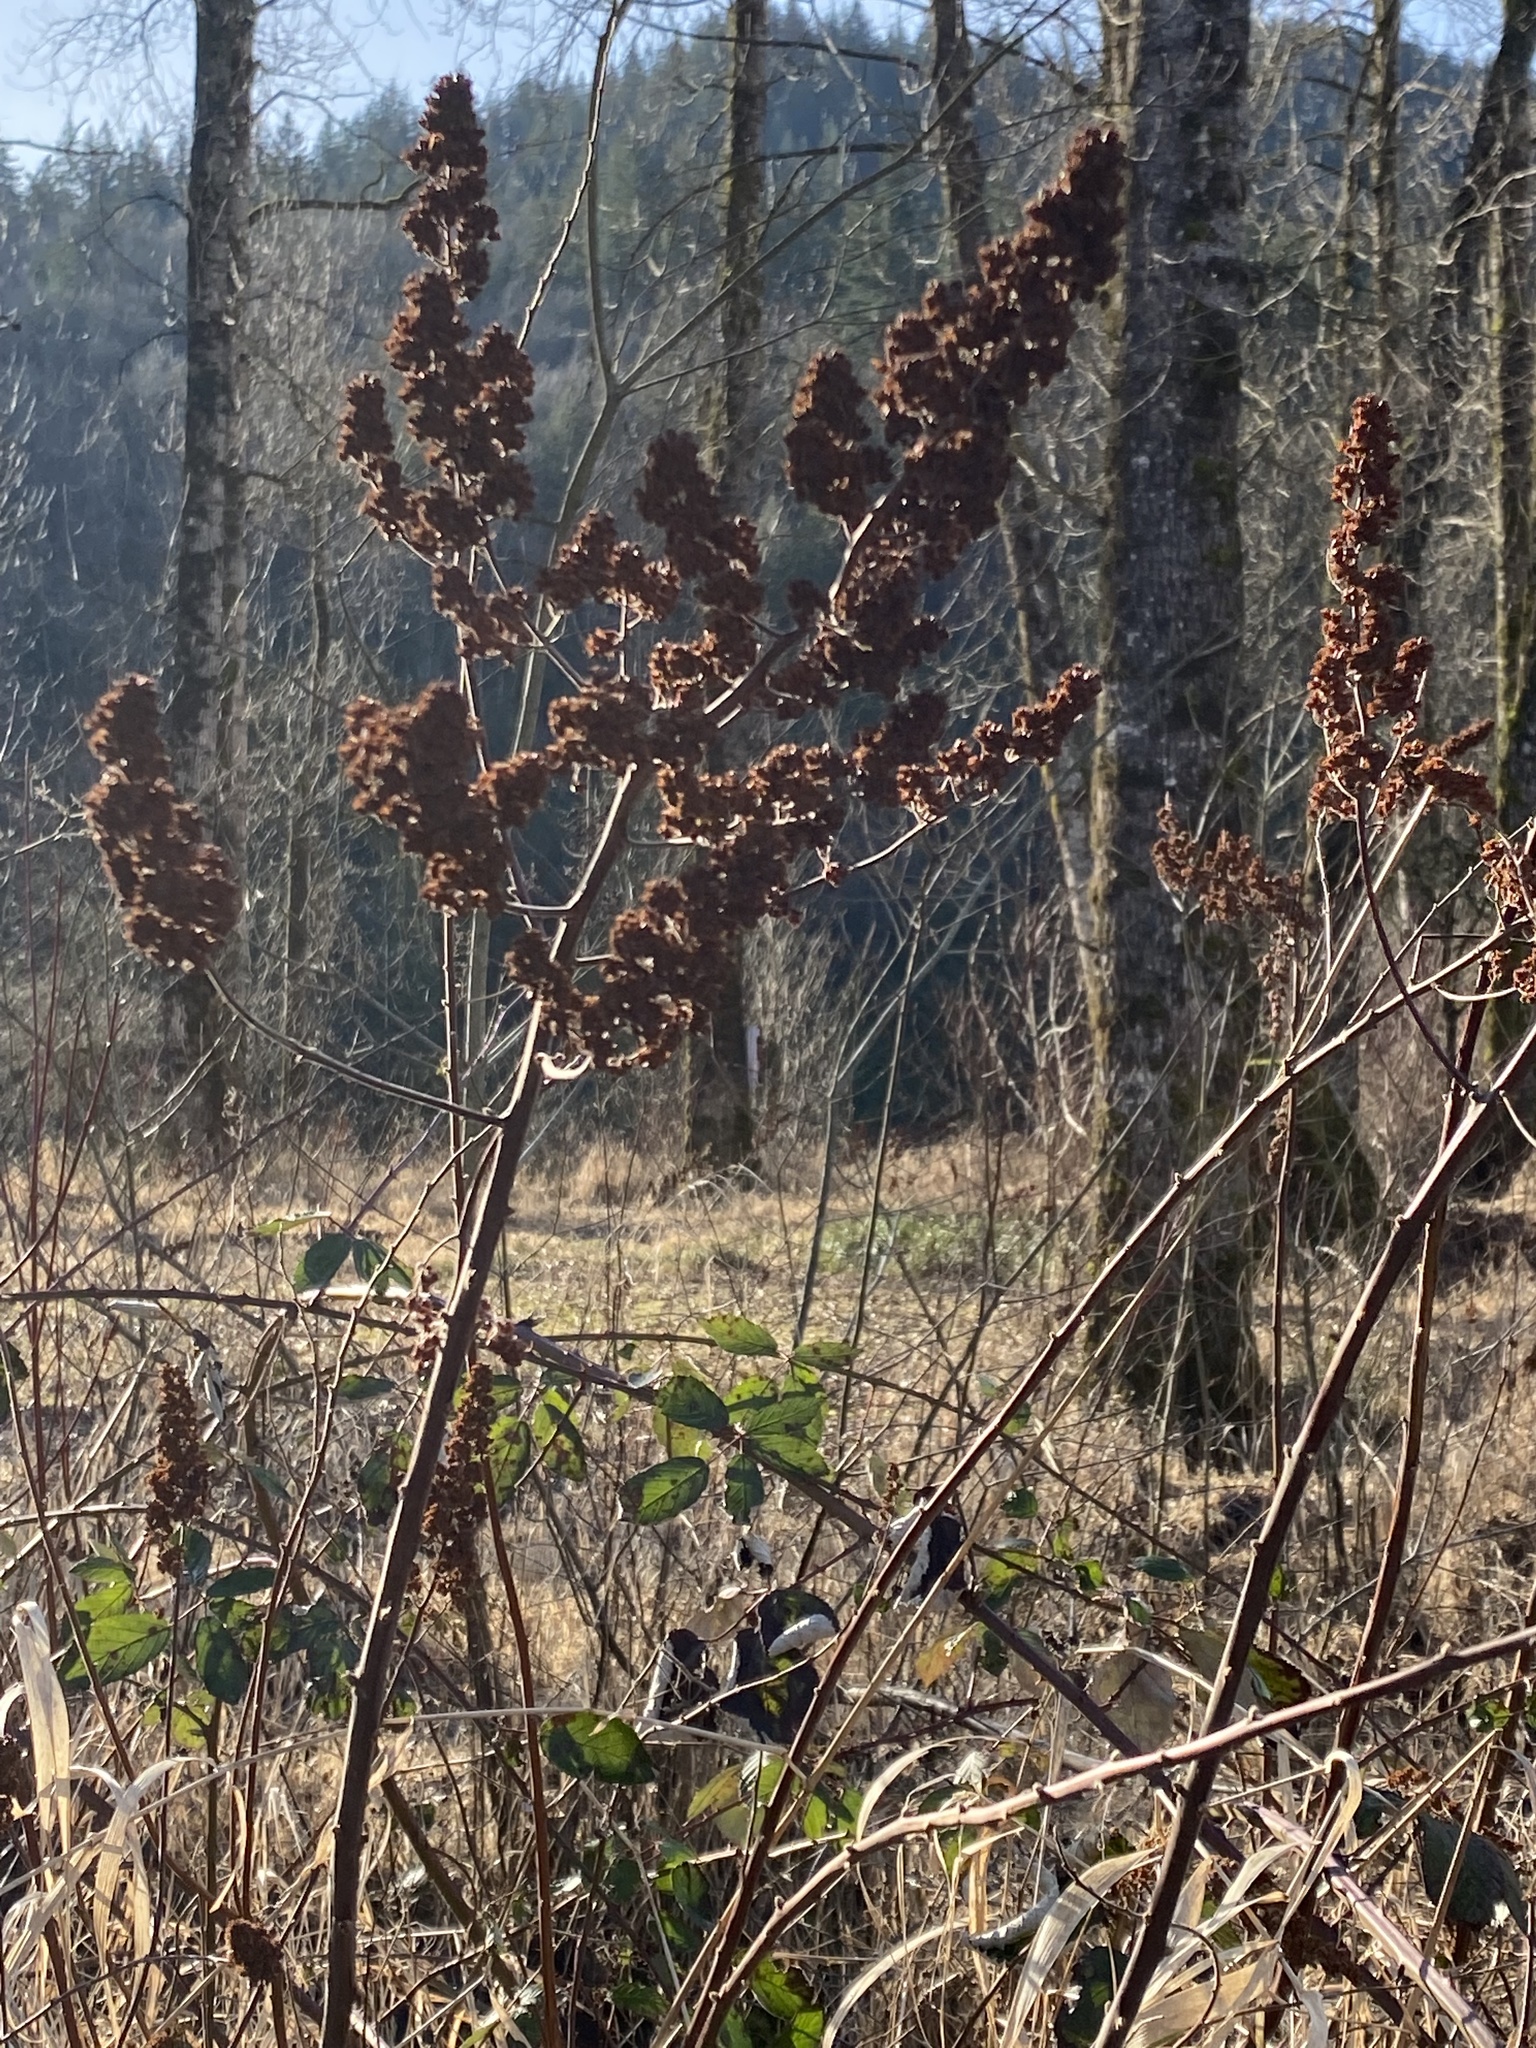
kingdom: Plantae
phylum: Tracheophyta
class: Magnoliopsida
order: Rosales
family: Rosaceae
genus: Spiraea
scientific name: Spiraea douglasii
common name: Steeplebush
